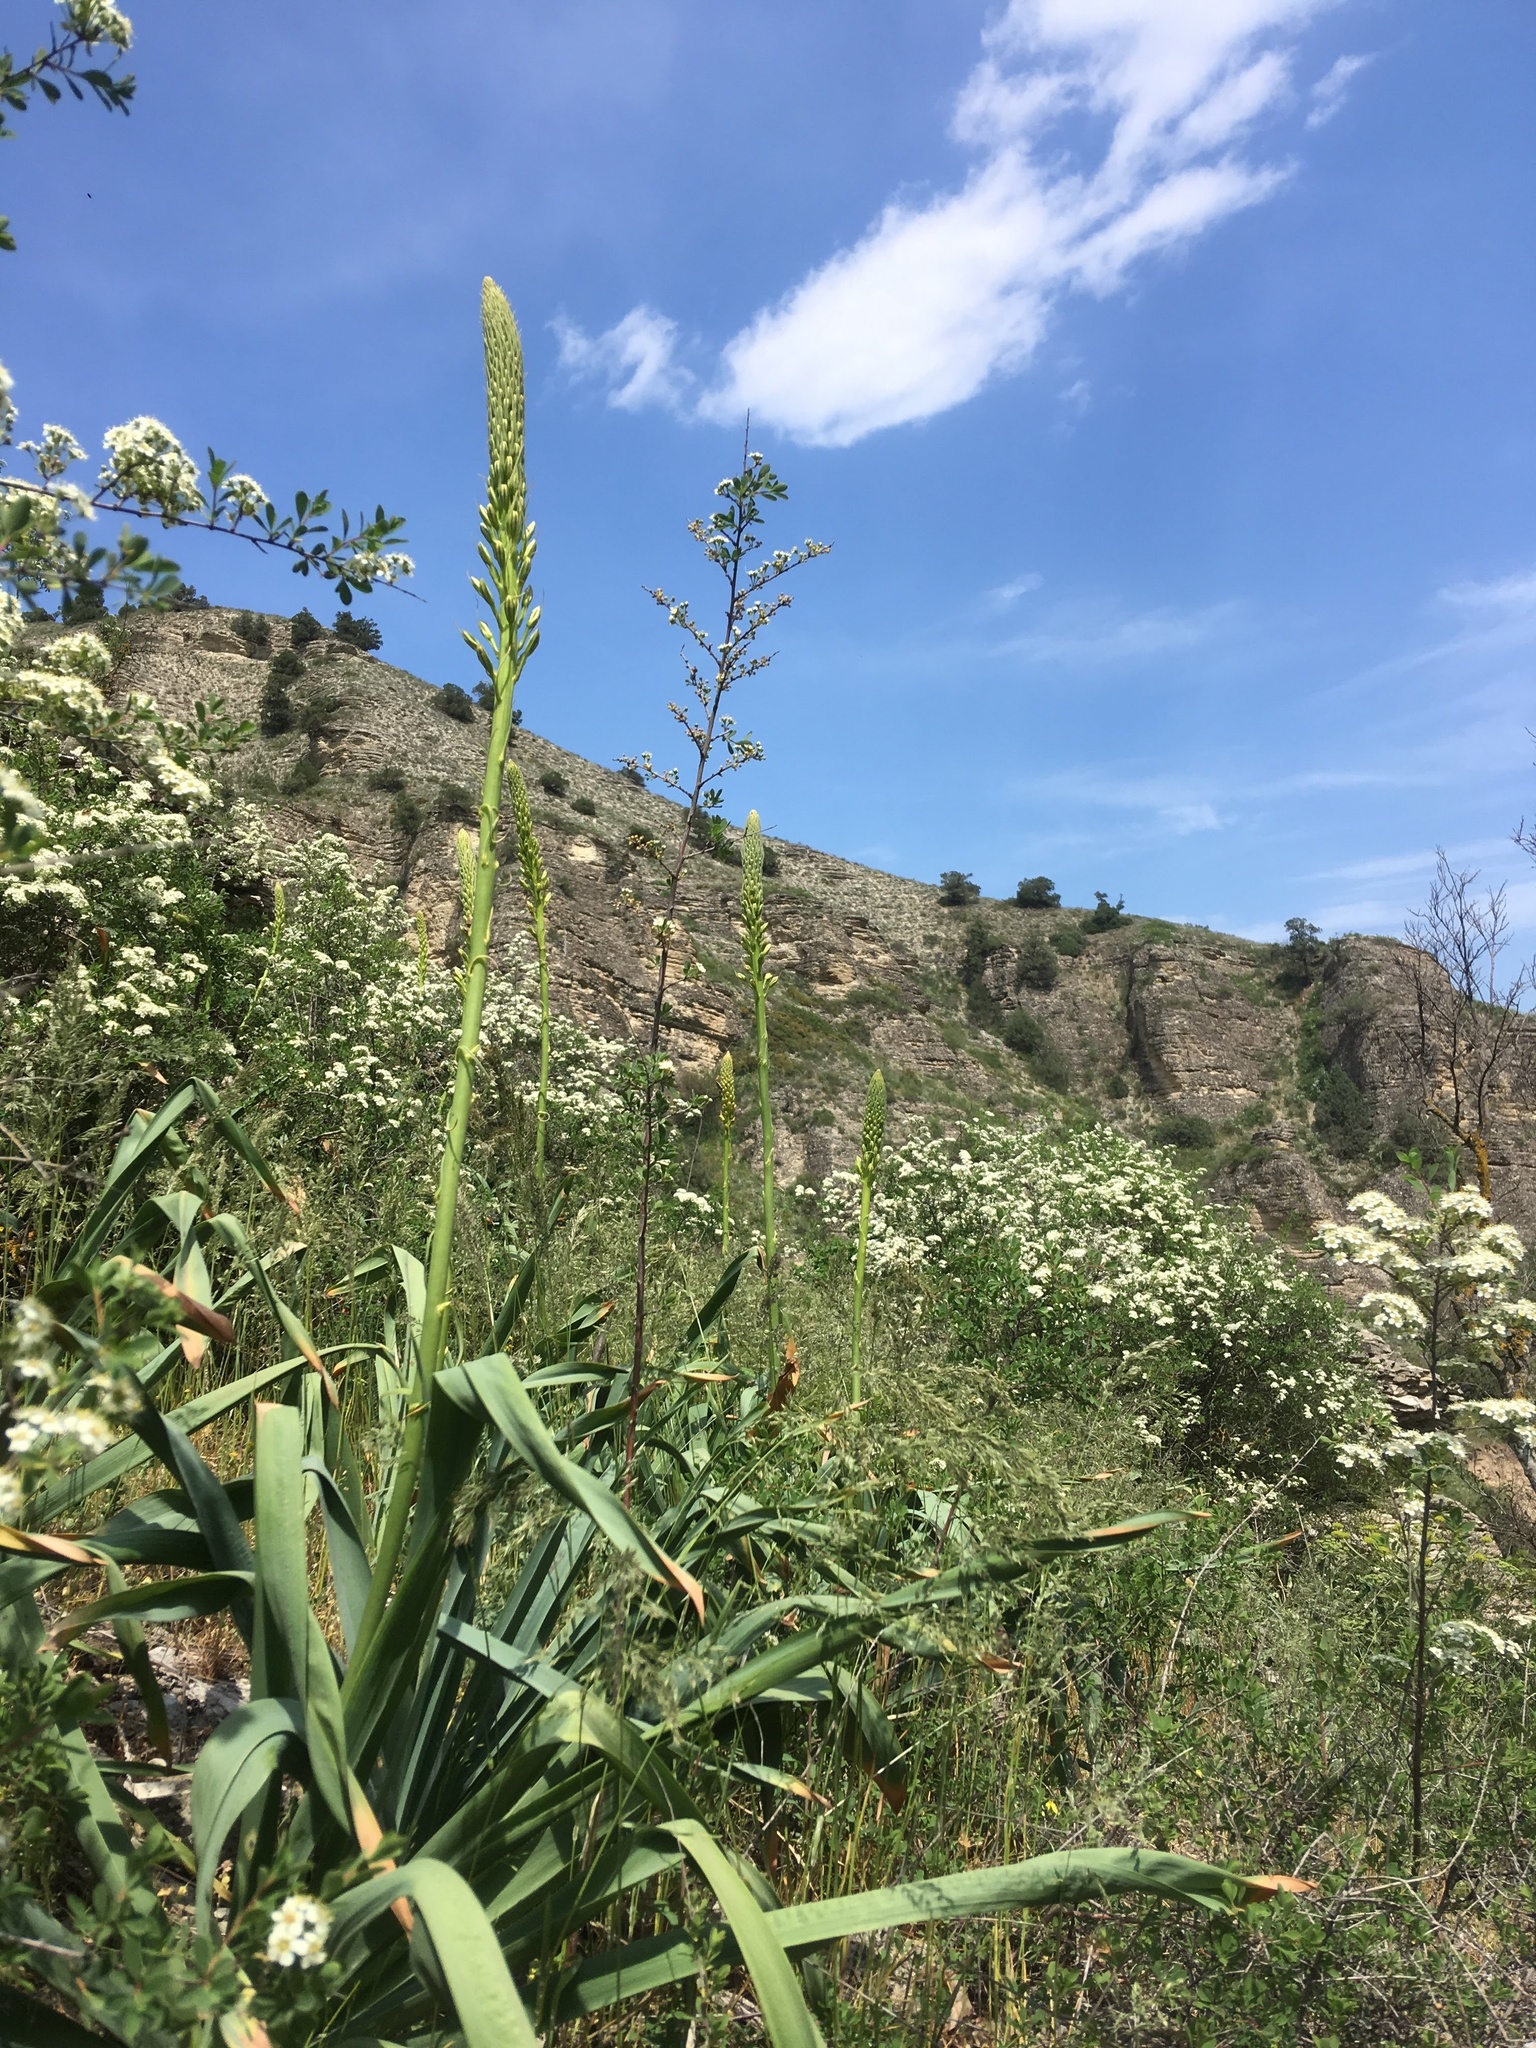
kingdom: Plantae
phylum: Tracheophyta
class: Liliopsida
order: Asparagales
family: Asphodelaceae
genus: Eremurus
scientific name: Eremurus spectabilis
